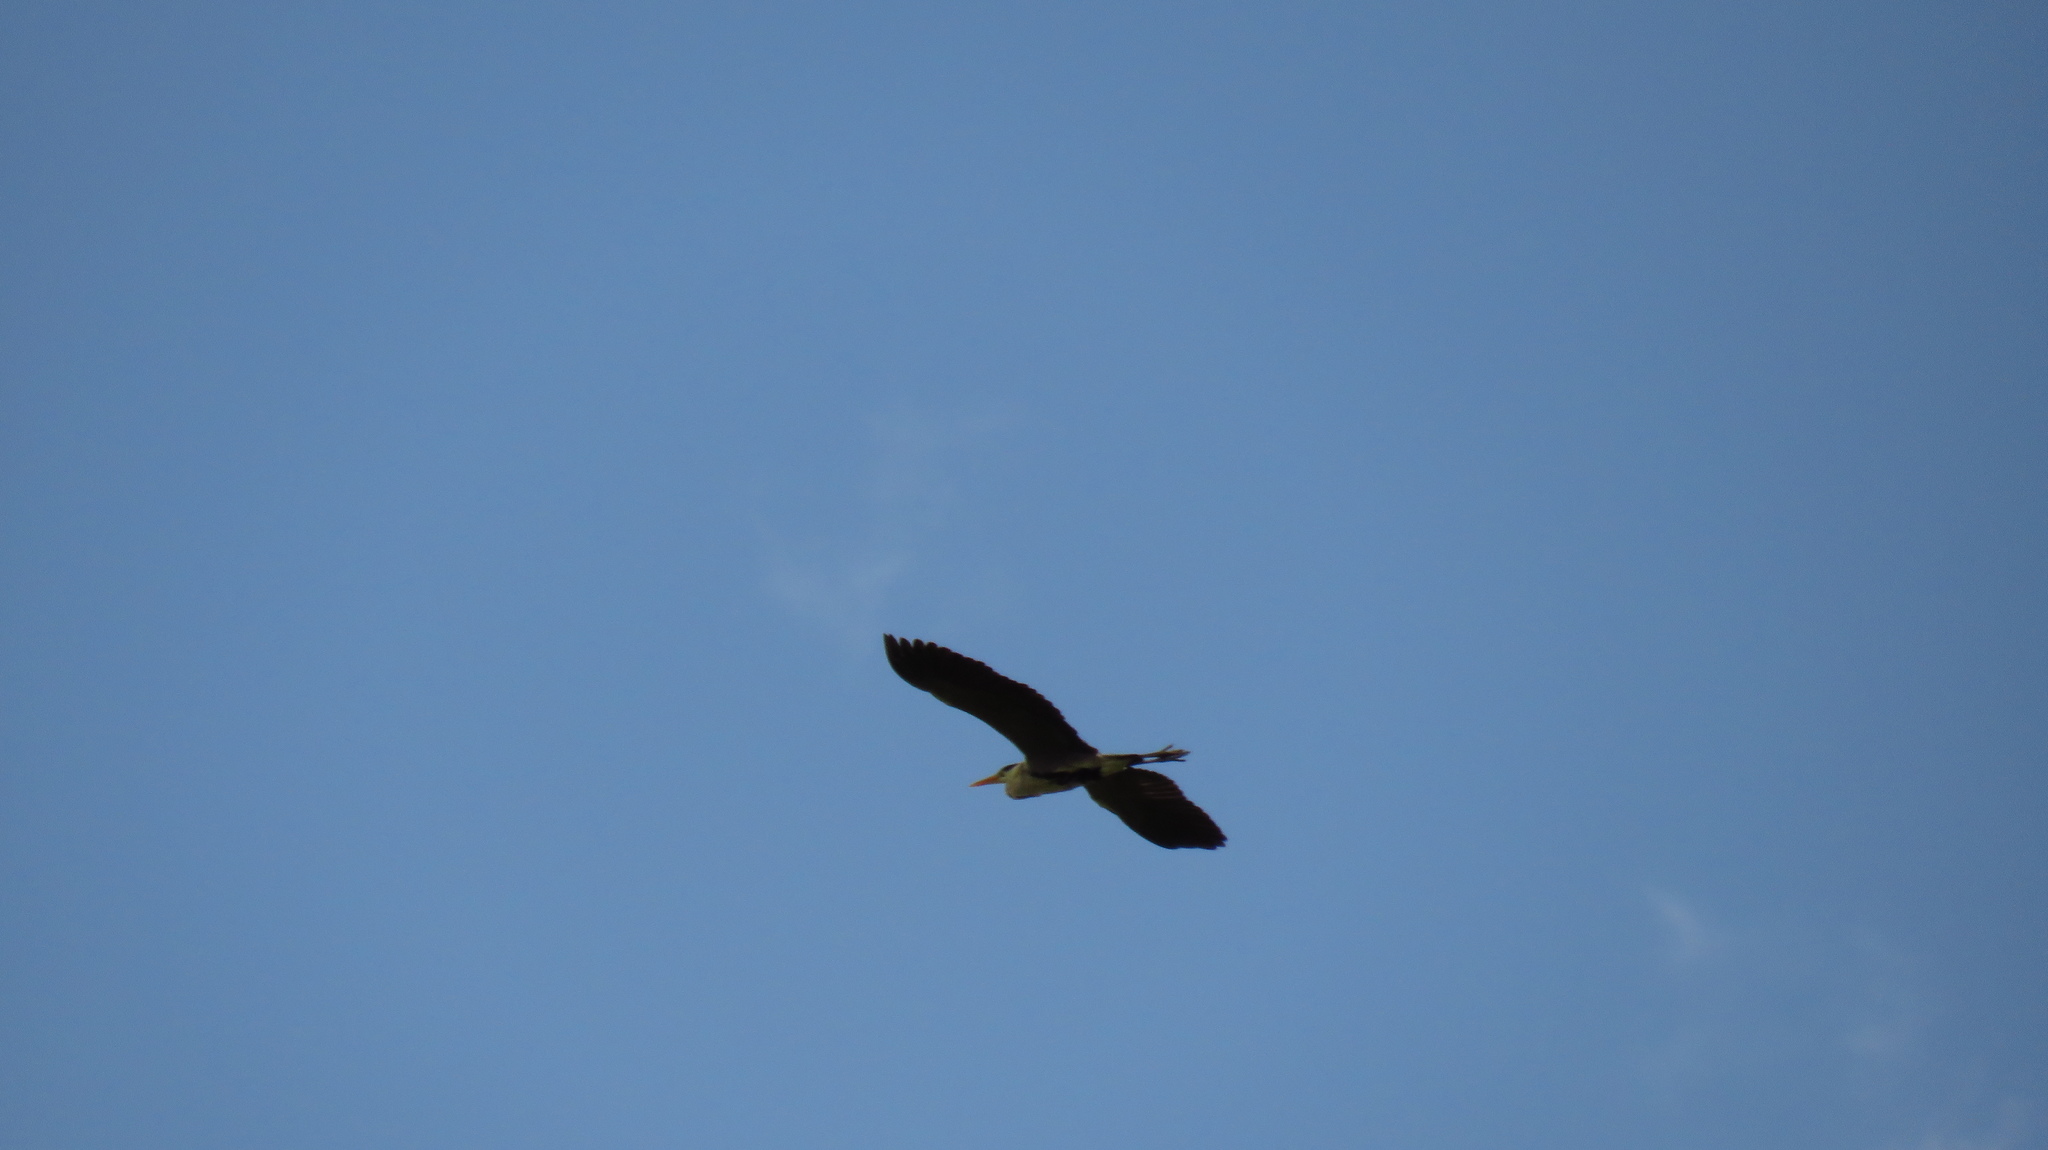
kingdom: Animalia
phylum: Chordata
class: Aves
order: Pelecaniformes
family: Ardeidae
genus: Ardea
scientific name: Ardea cinerea
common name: Grey heron
